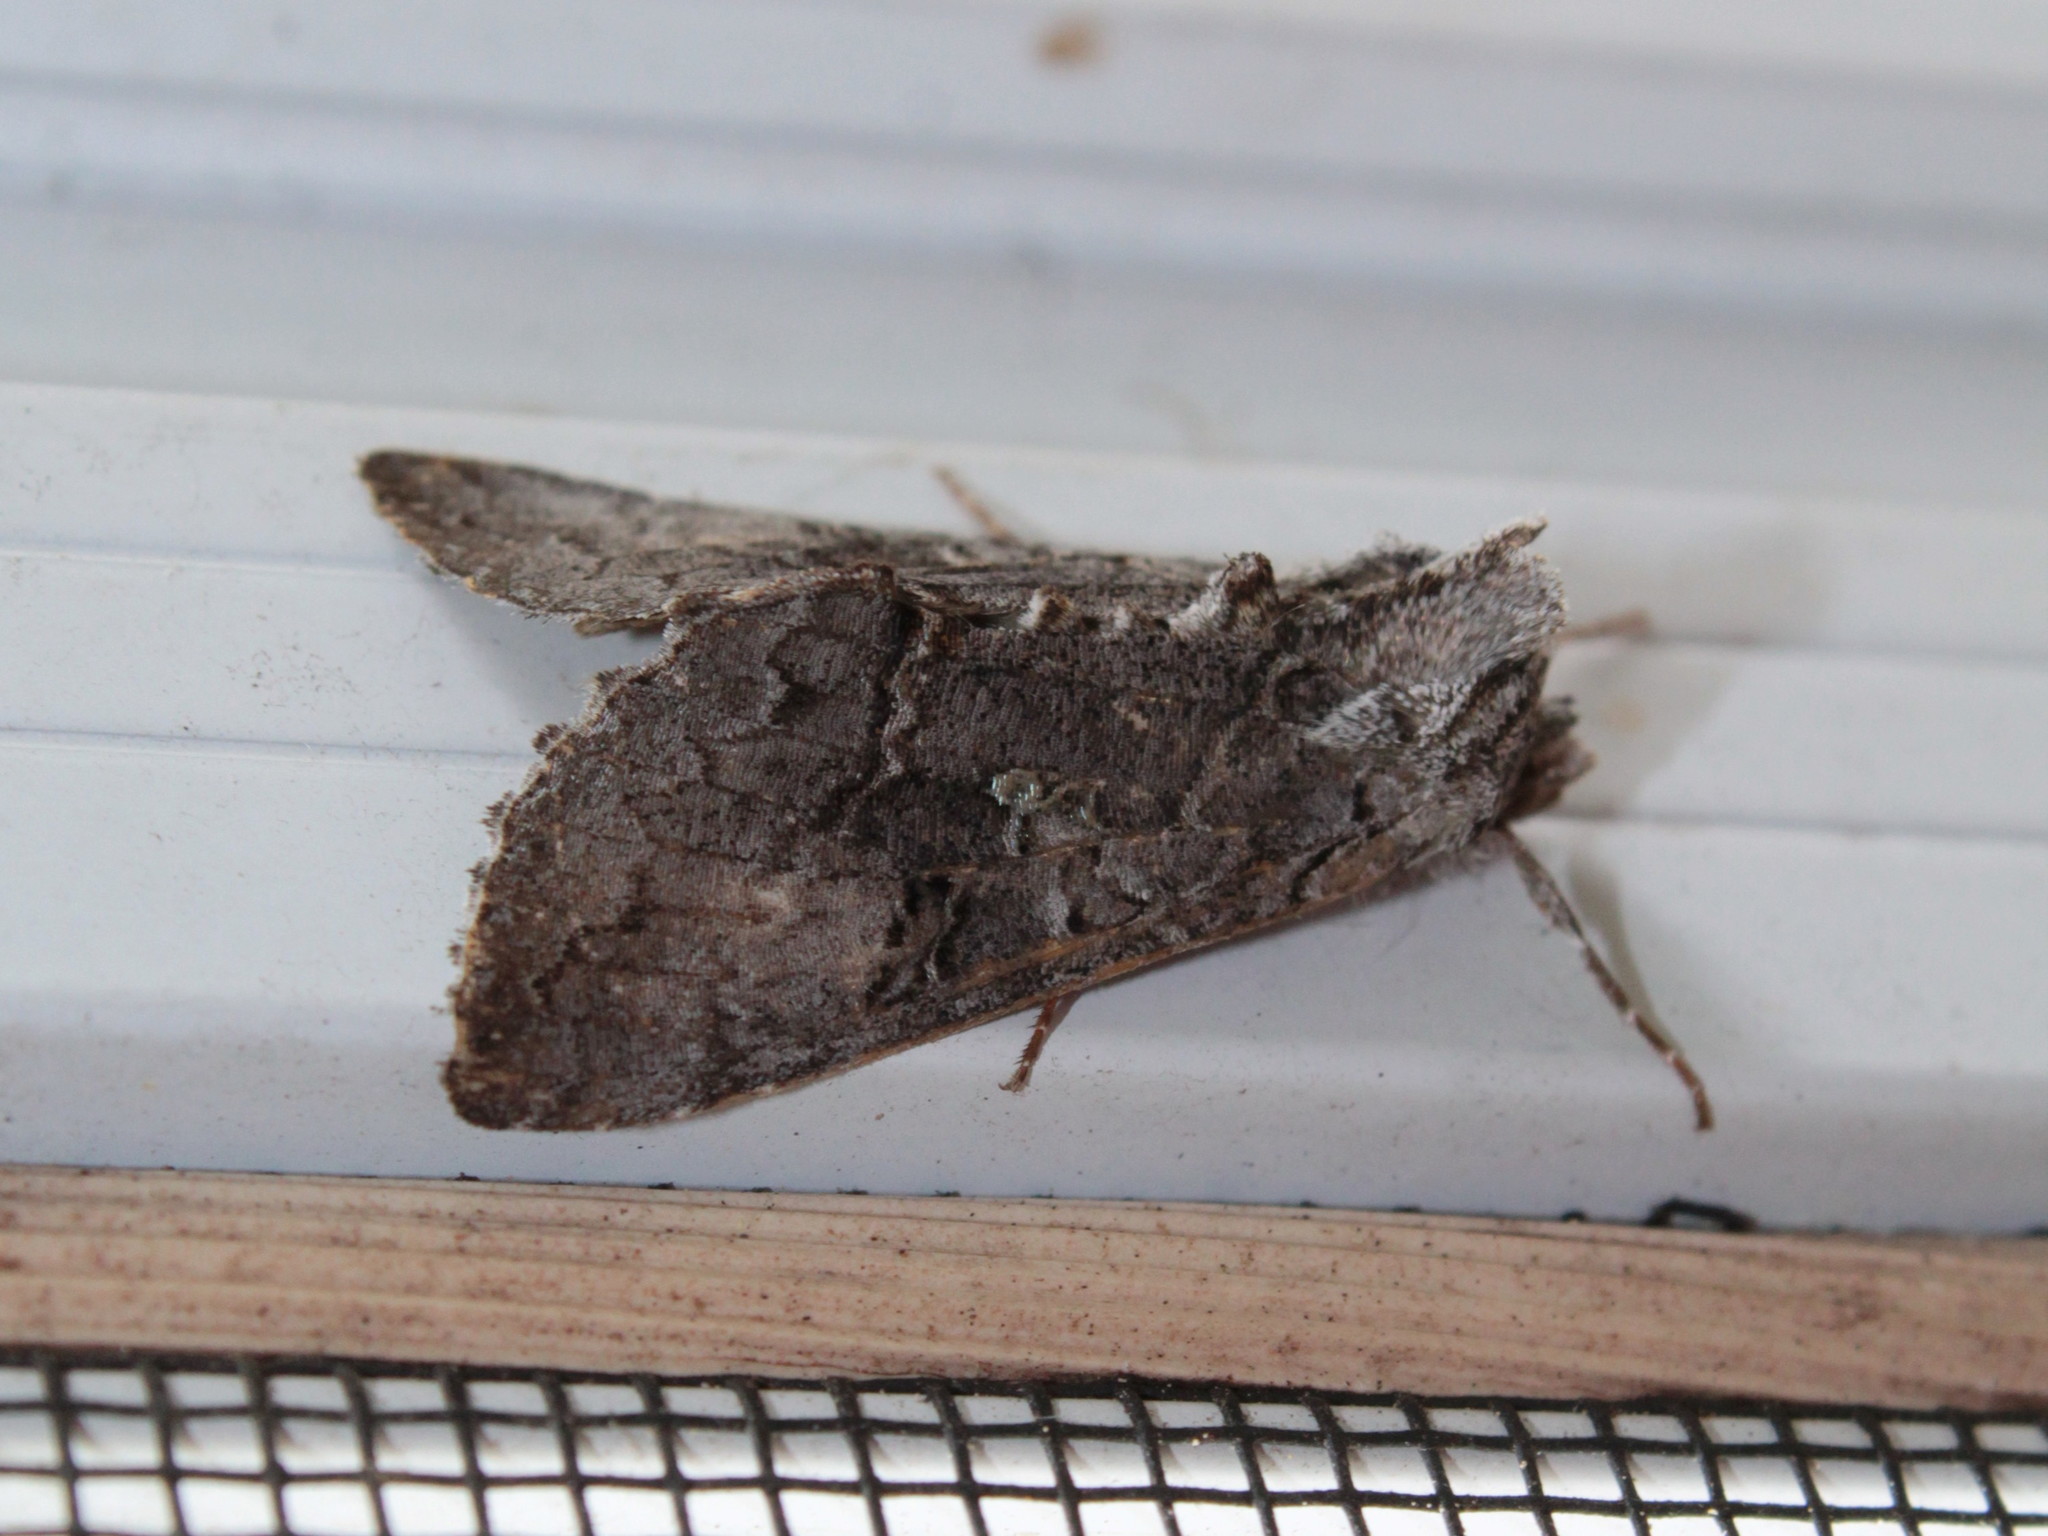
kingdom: Animalia
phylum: Arthropoda
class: Insecta
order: Lepidoptera
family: Noctuidae
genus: Syngrapha
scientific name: Syngrapha viridisigma
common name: Spruce false looper moth
